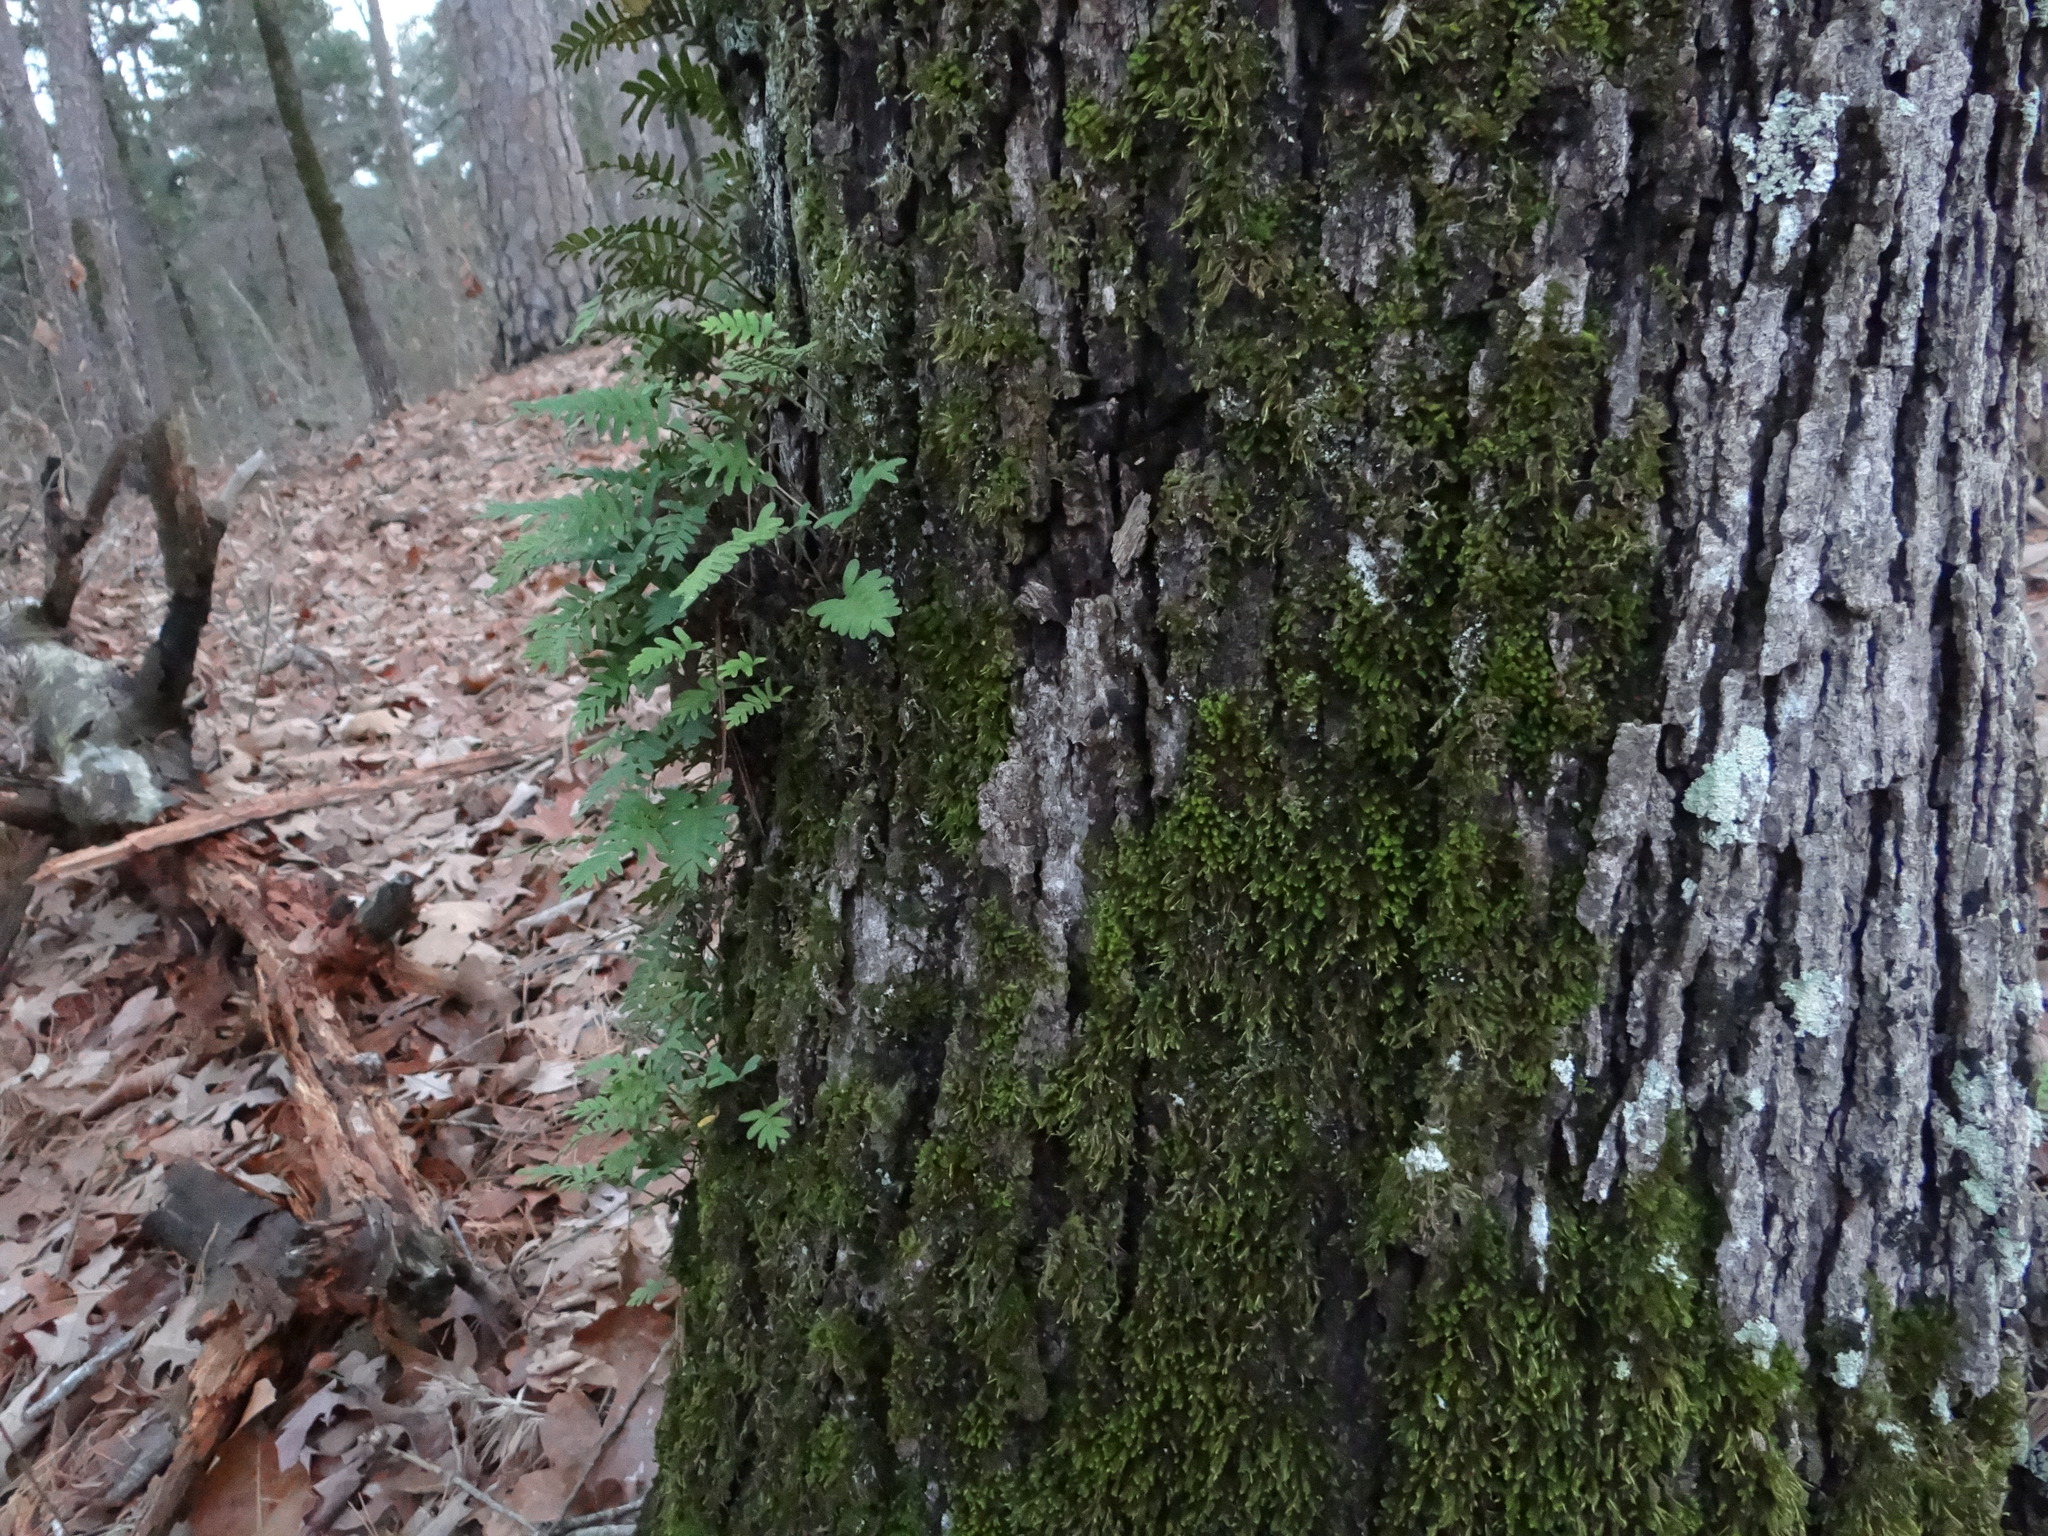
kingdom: Plantae
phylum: Tracheophyta
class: Polypodiopsida
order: Polypodiales
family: Polypodiaceae
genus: Pleopeltis
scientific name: Pleopeltis michauxiana
